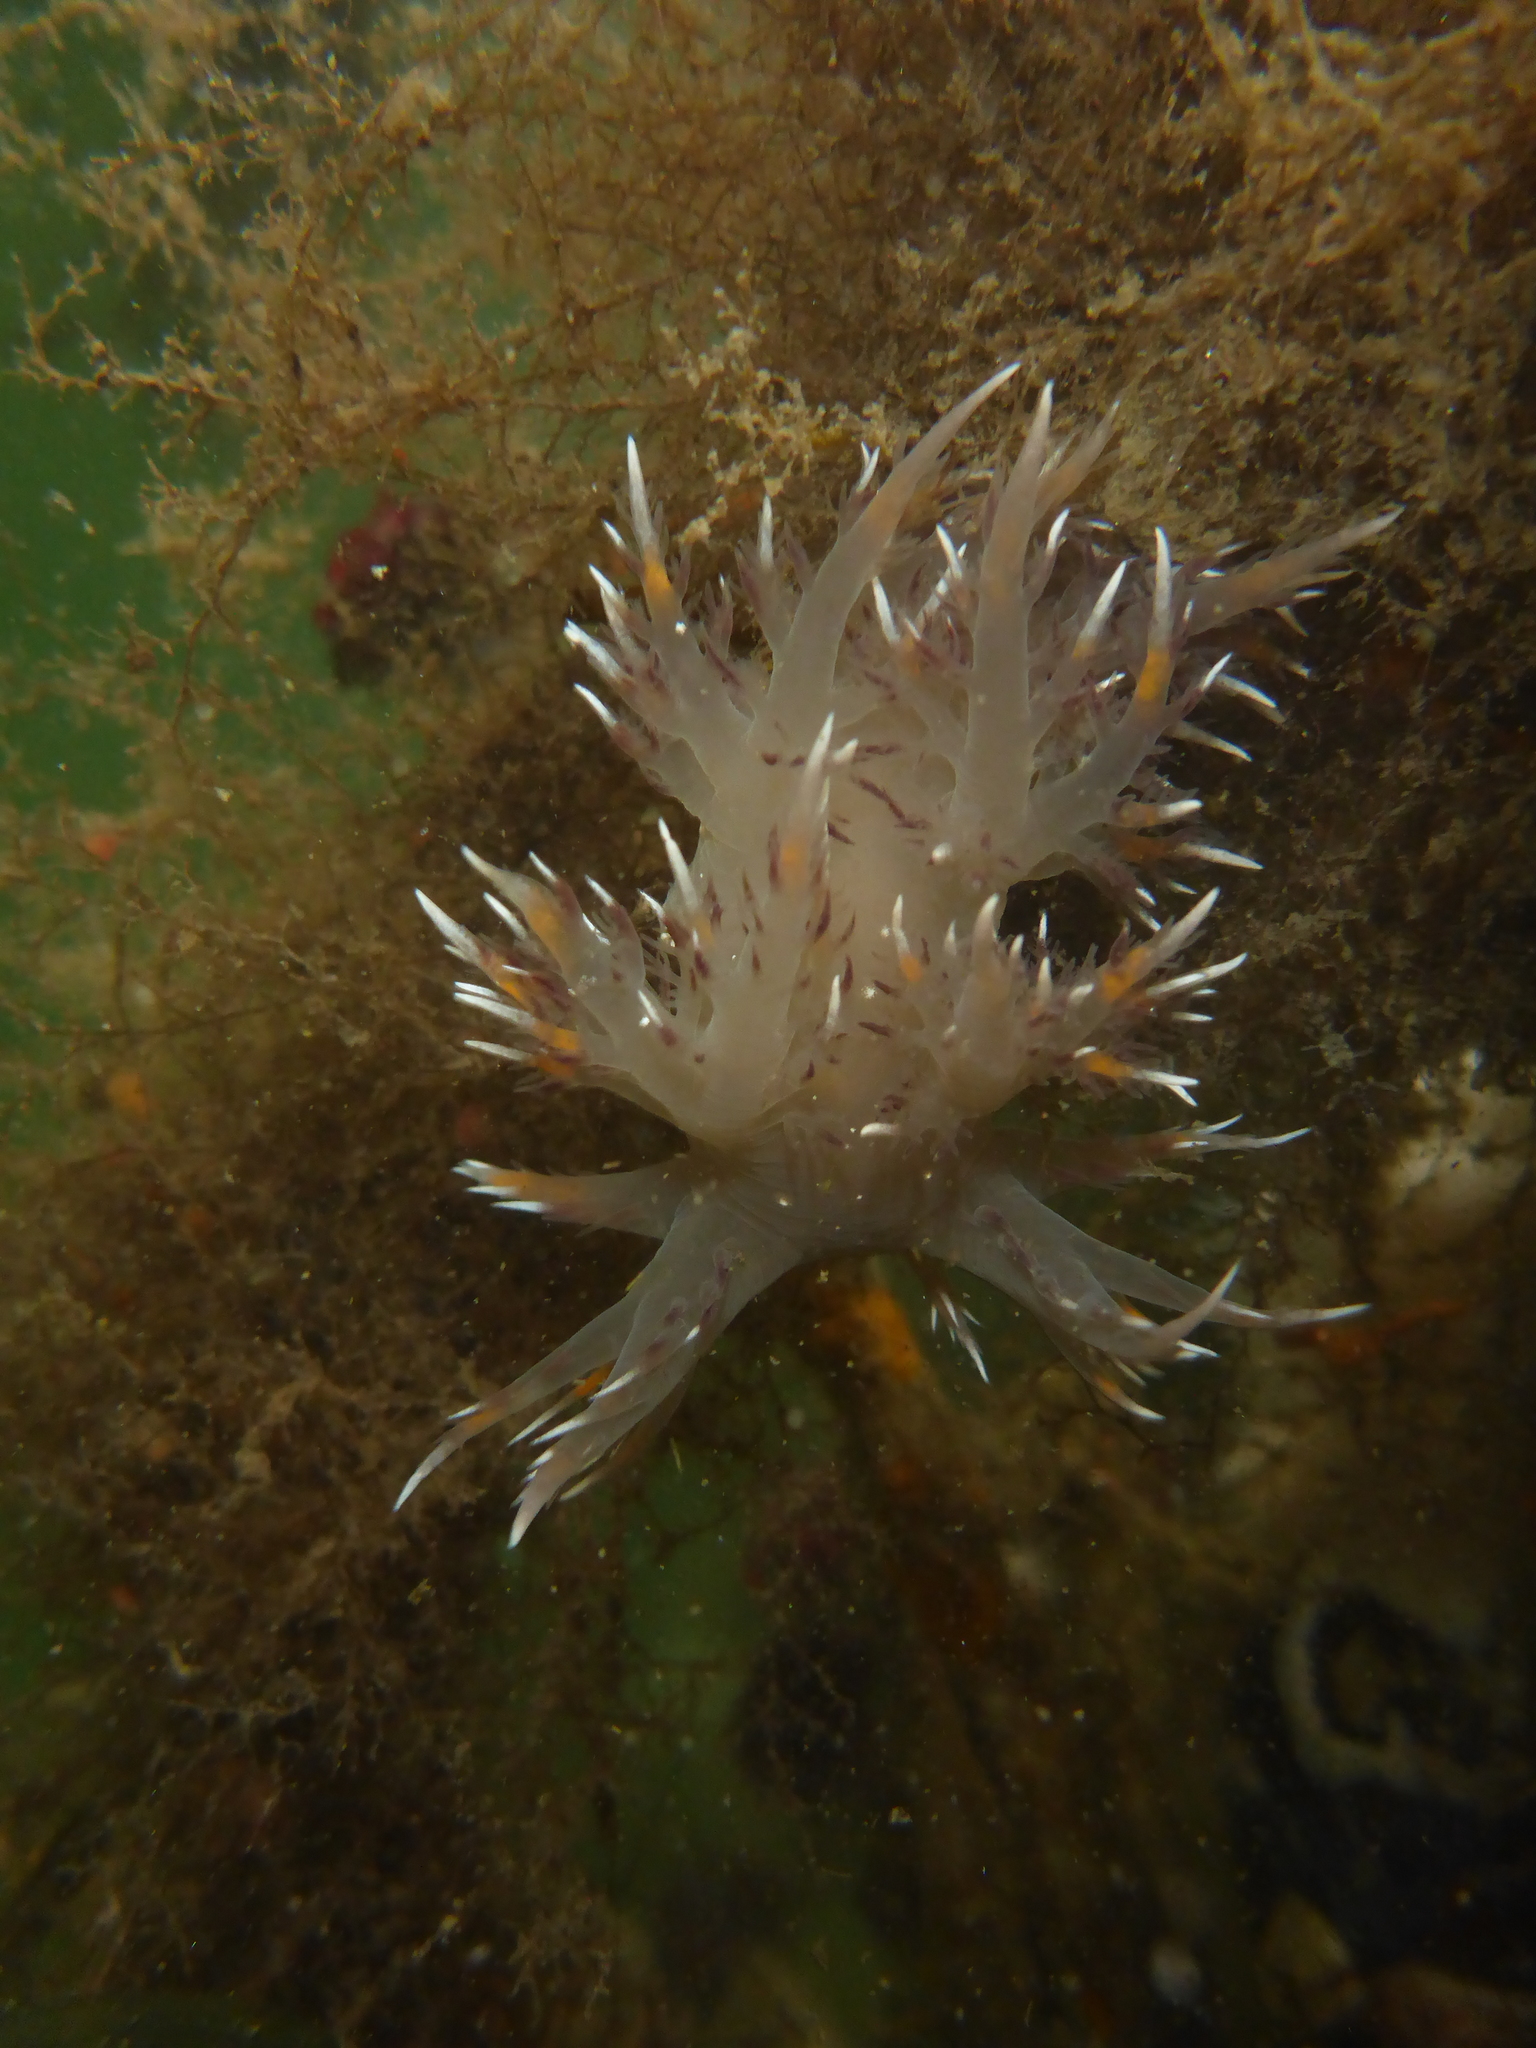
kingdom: Animalia
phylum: Mollusca
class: Gastropoda
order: Nudibranchia
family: Dendronotidae
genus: Dendronotus
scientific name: Dendronotus iris
